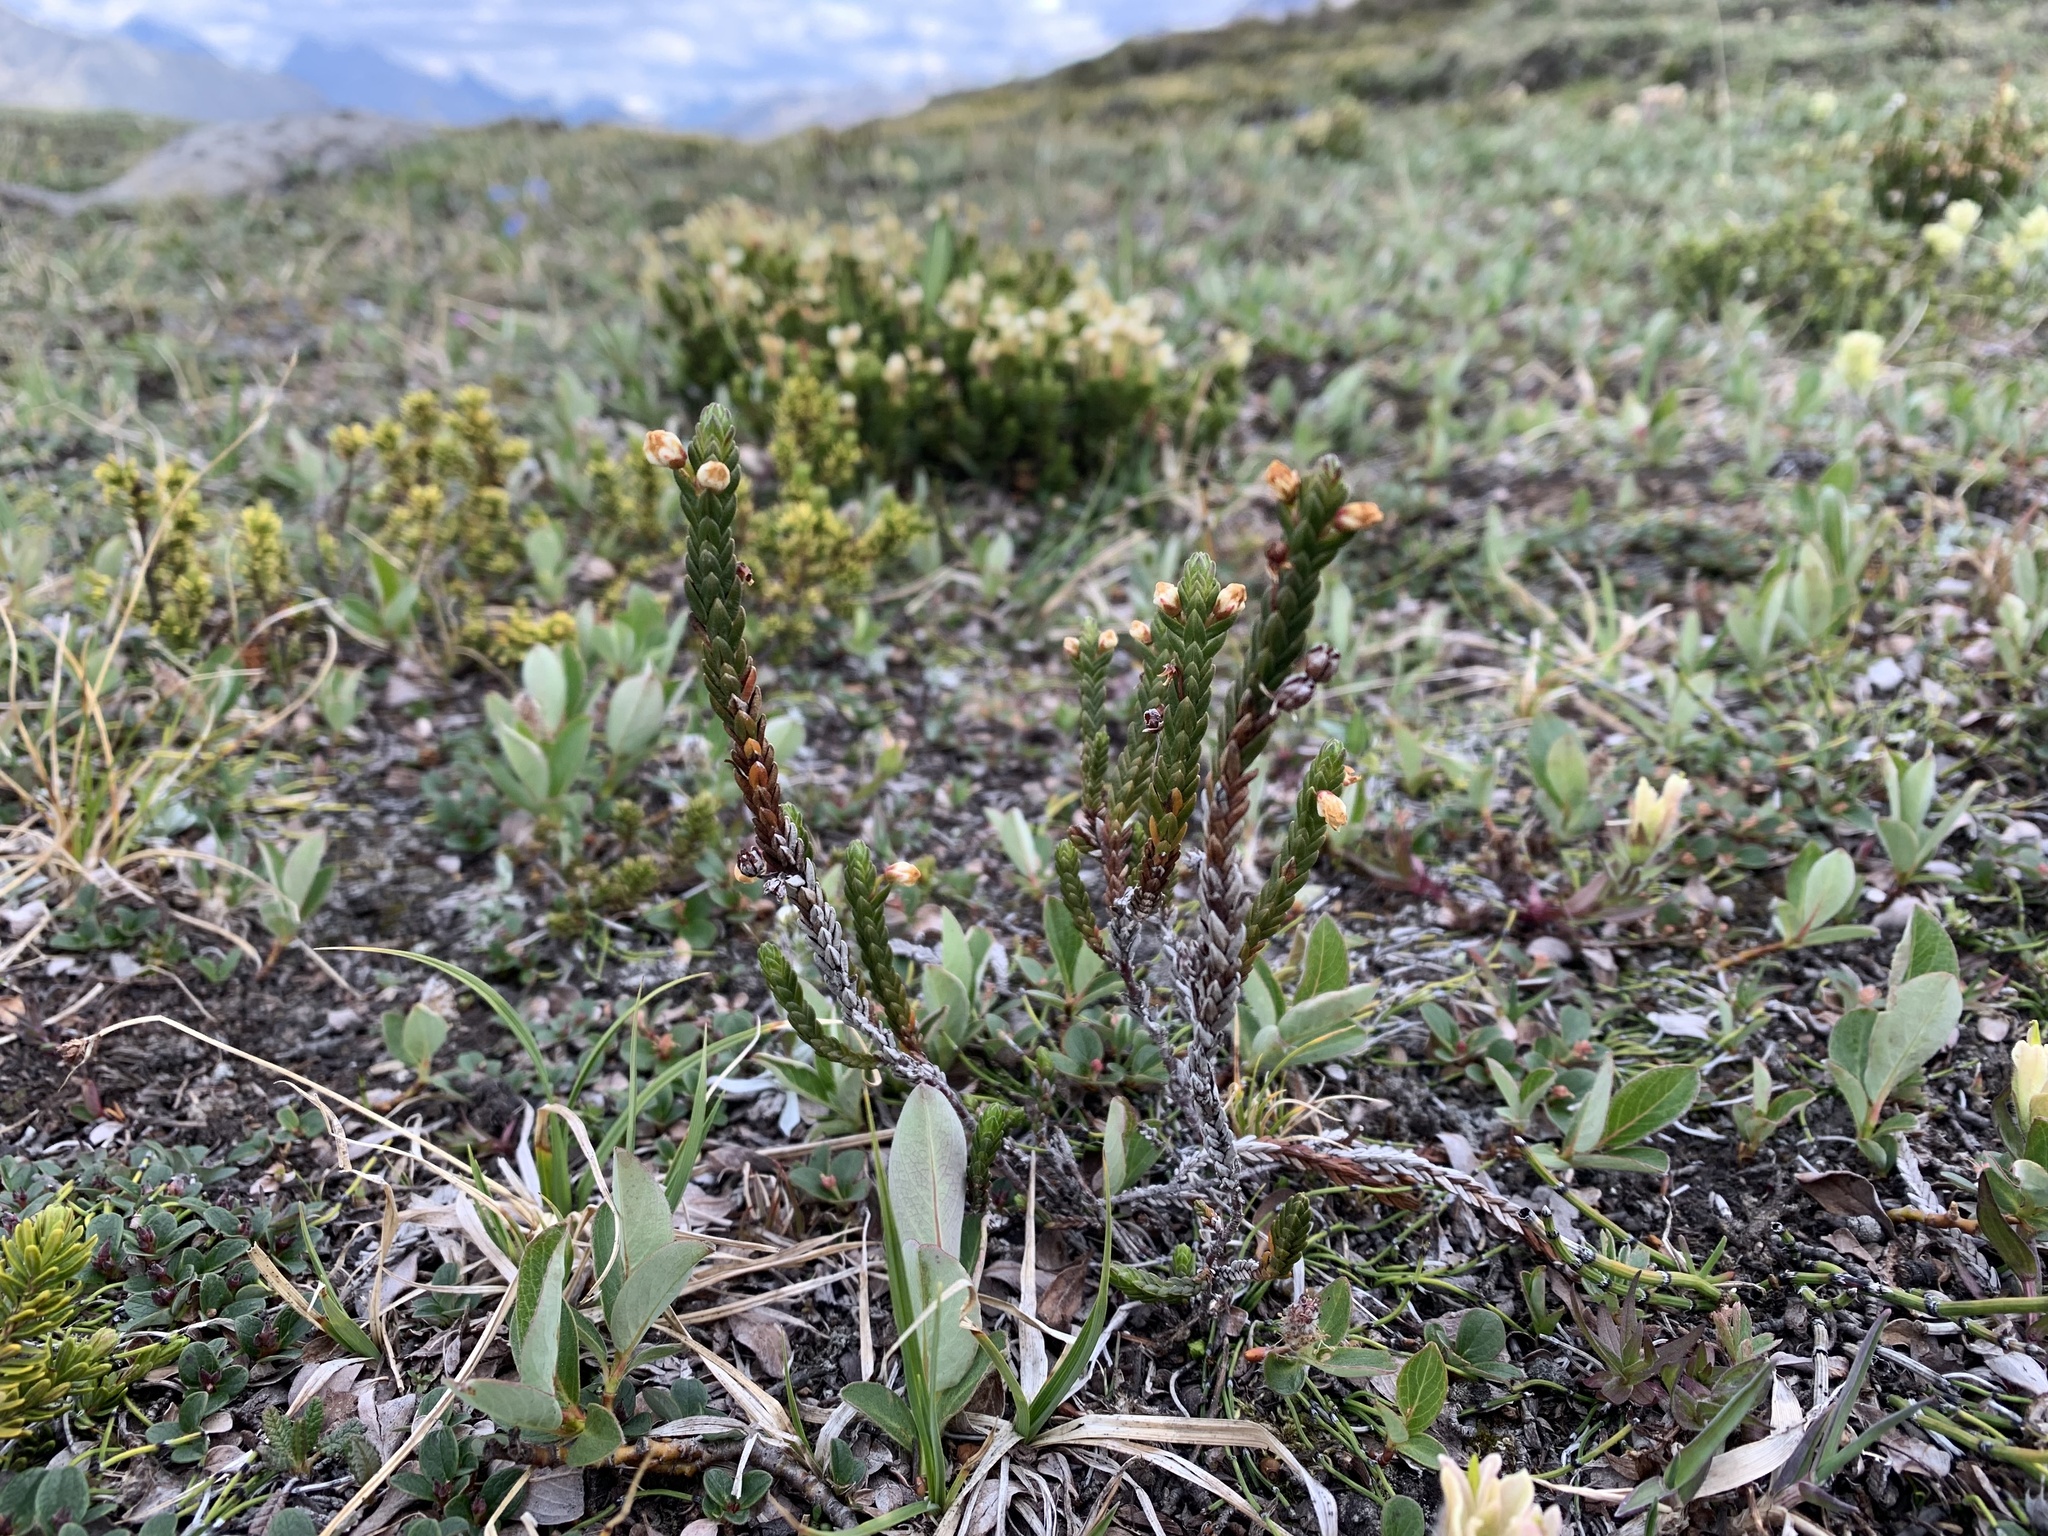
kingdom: Plantae
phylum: Tracheophyta
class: Magnoliopsida
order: Ericales
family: Ericaceae
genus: Cassiope
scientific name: Cassiope tetragona
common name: Arctic bell heather
